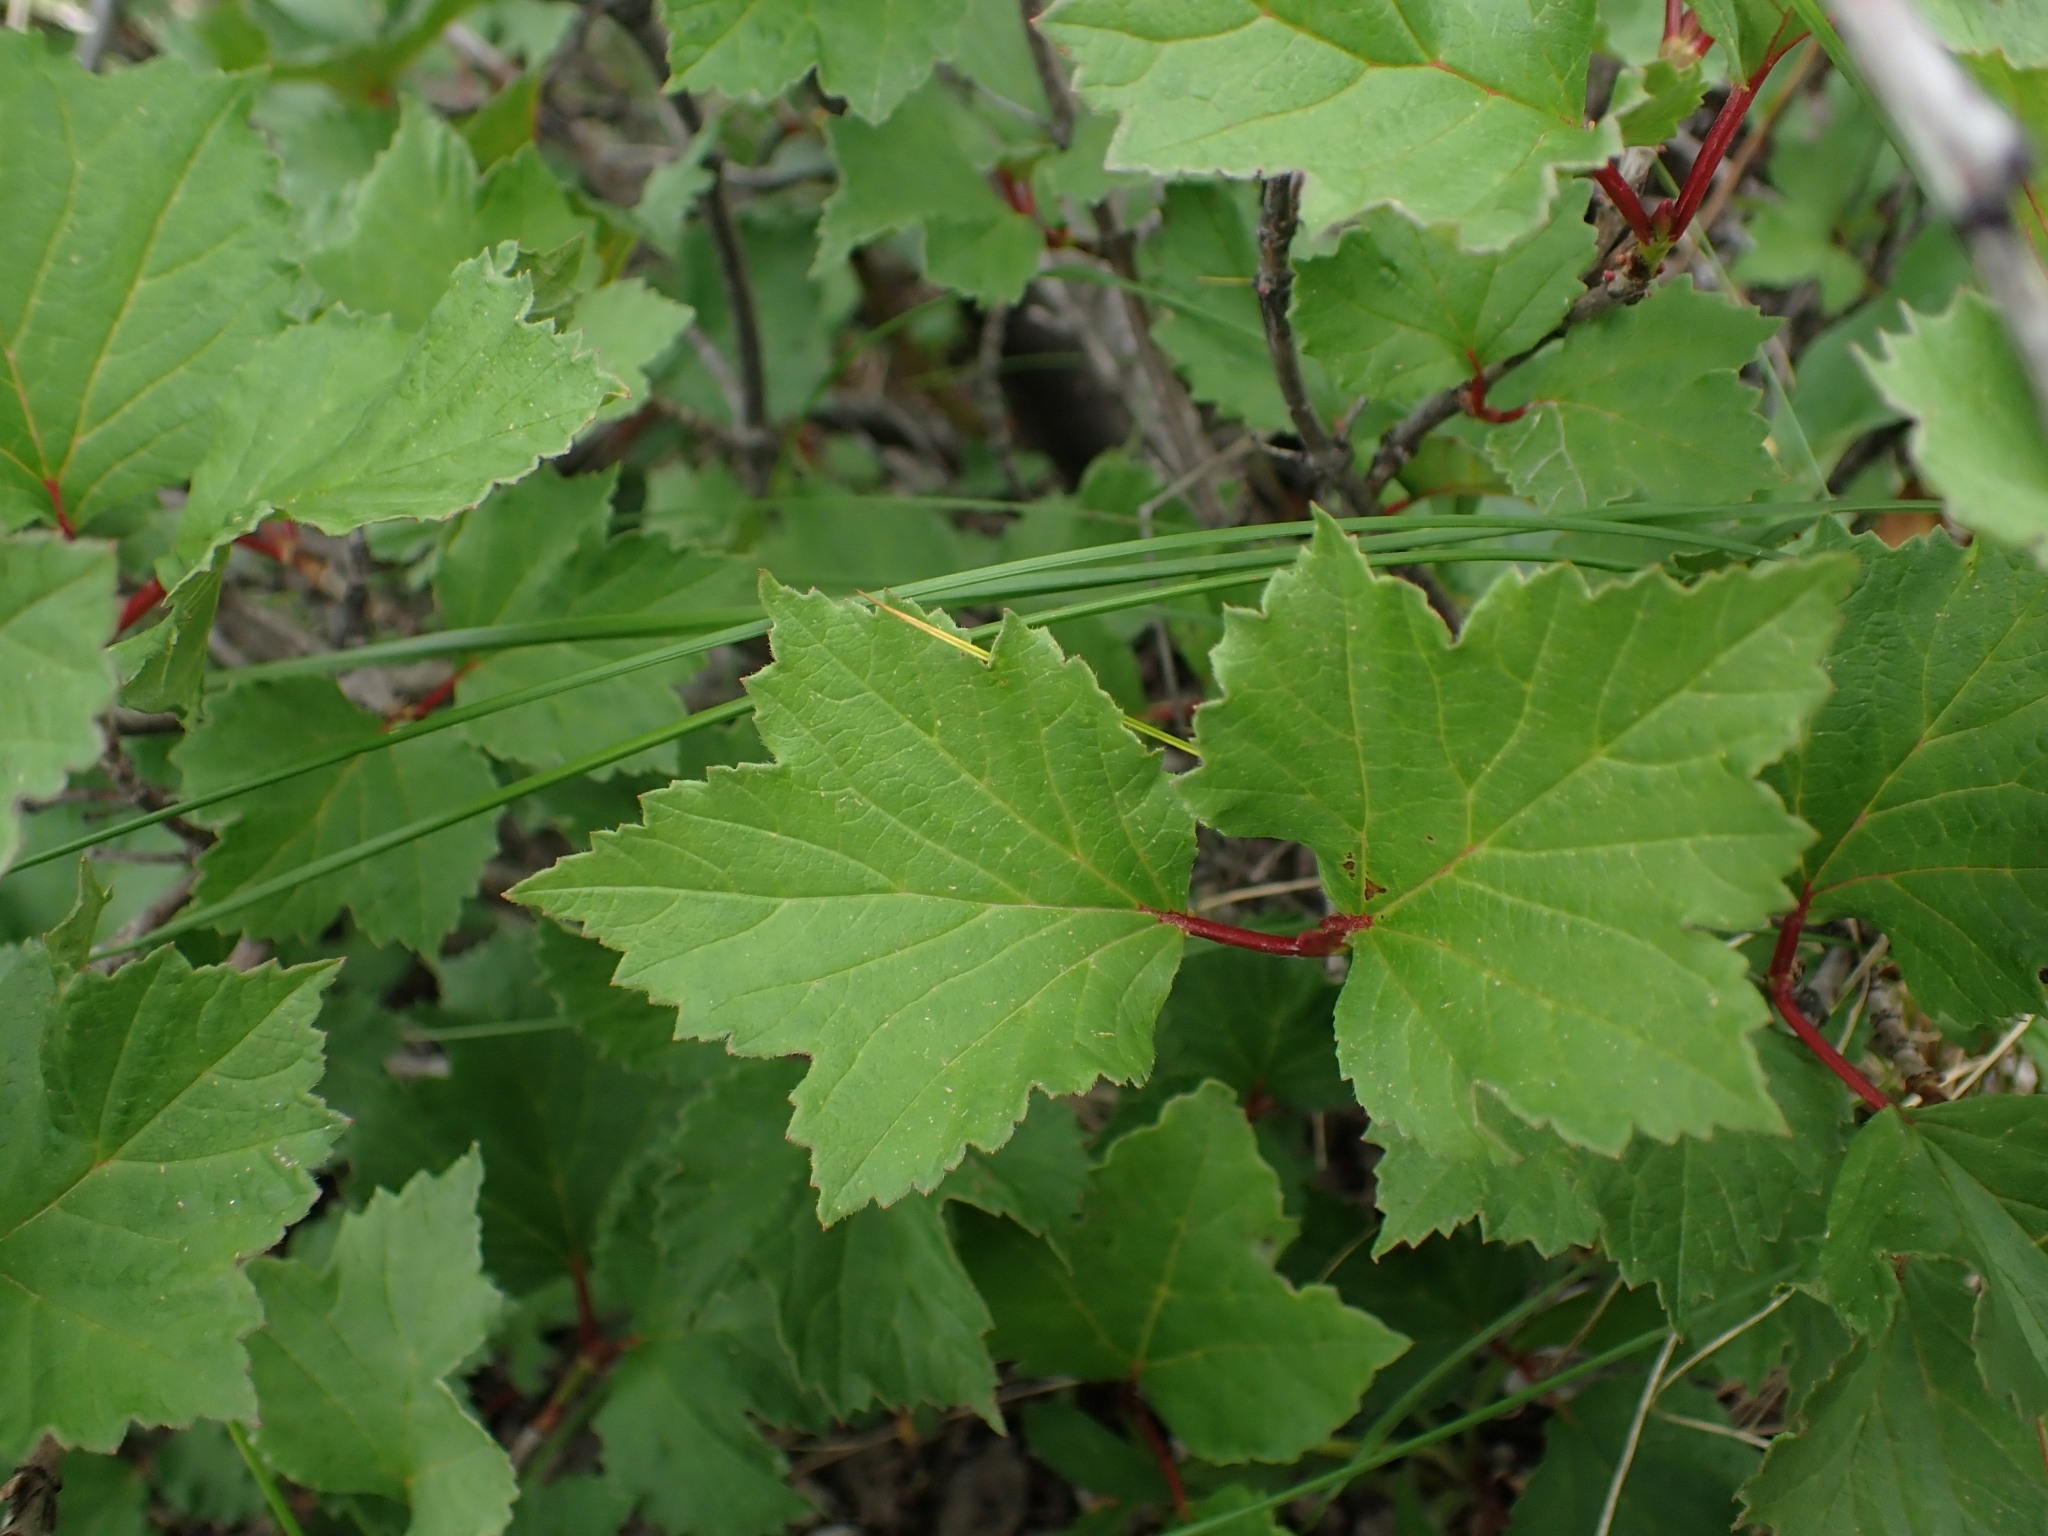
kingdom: Plantae
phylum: Tracheophyta
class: Magnoliopsida
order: Dipsacales
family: Viburnaceae
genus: Viburnum
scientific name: Viburnum edule
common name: Mooseberry
